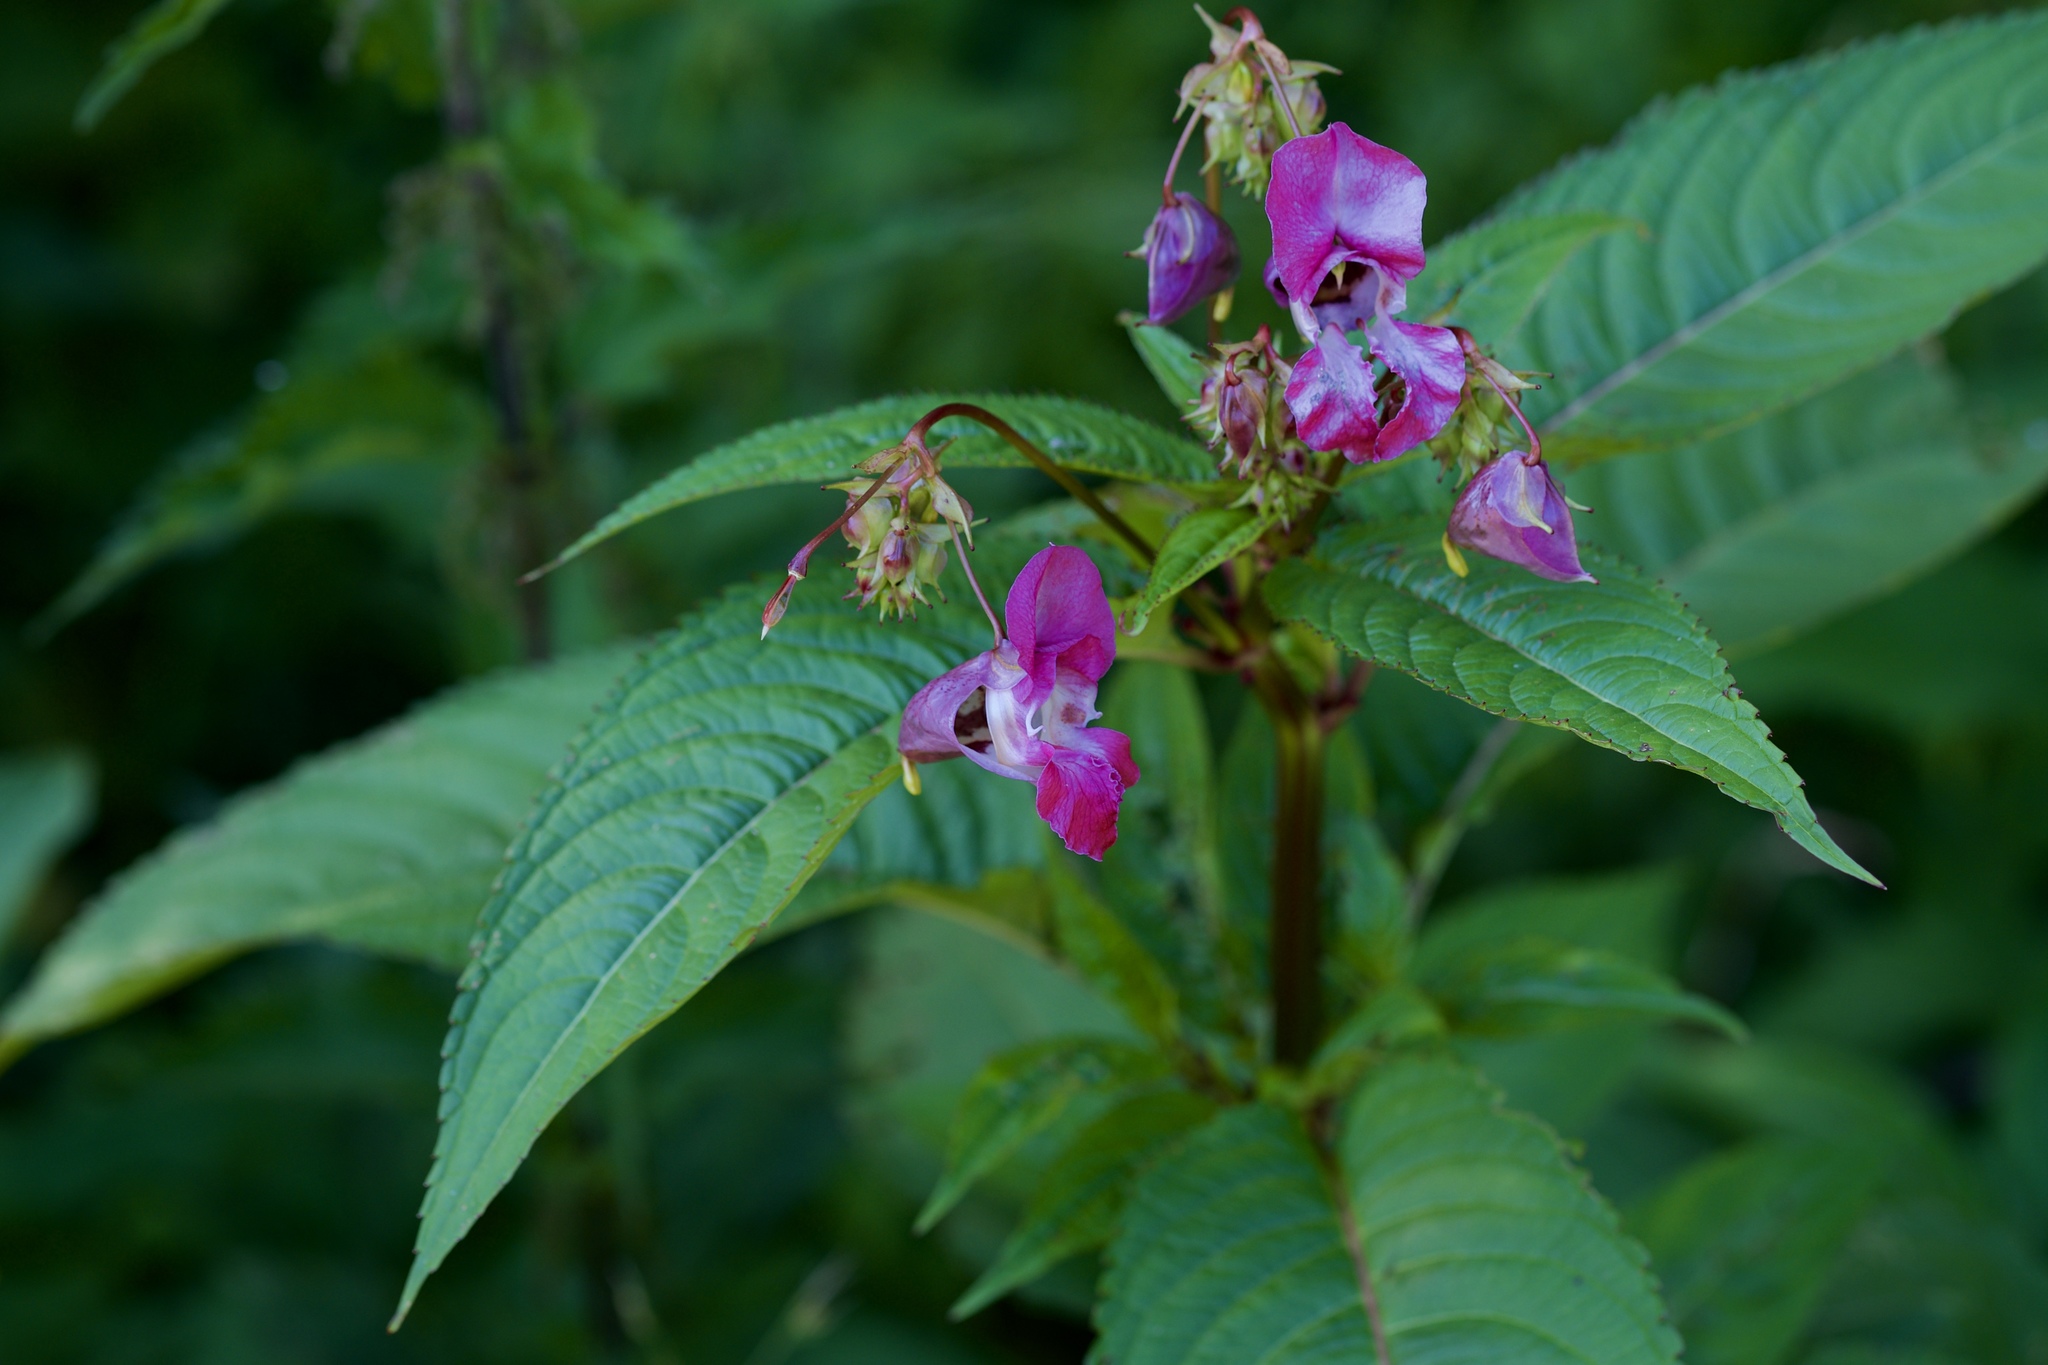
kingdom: Plantae
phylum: Tracheophyta
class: Magnoliopsida
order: Ericales
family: Balsaminaceae
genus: Impatiens
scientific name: Impatiens glandulifera
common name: Himalayan balsam
